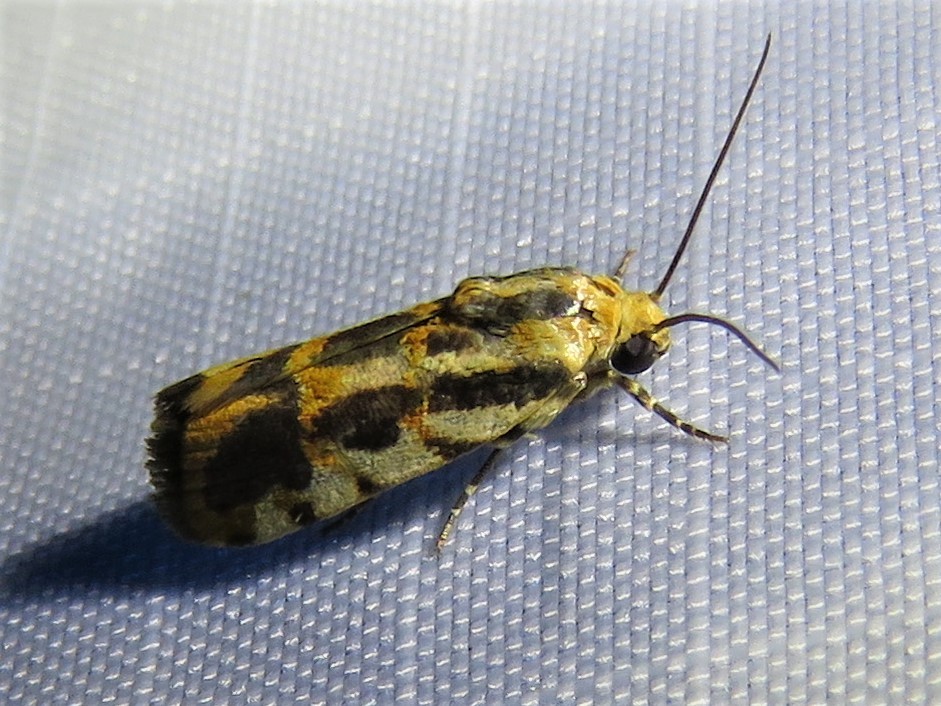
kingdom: Animalia
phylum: Arthropoda
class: Insecta
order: Lepidoptera
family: Noctuidae
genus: Acontia
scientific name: Acontia leo
